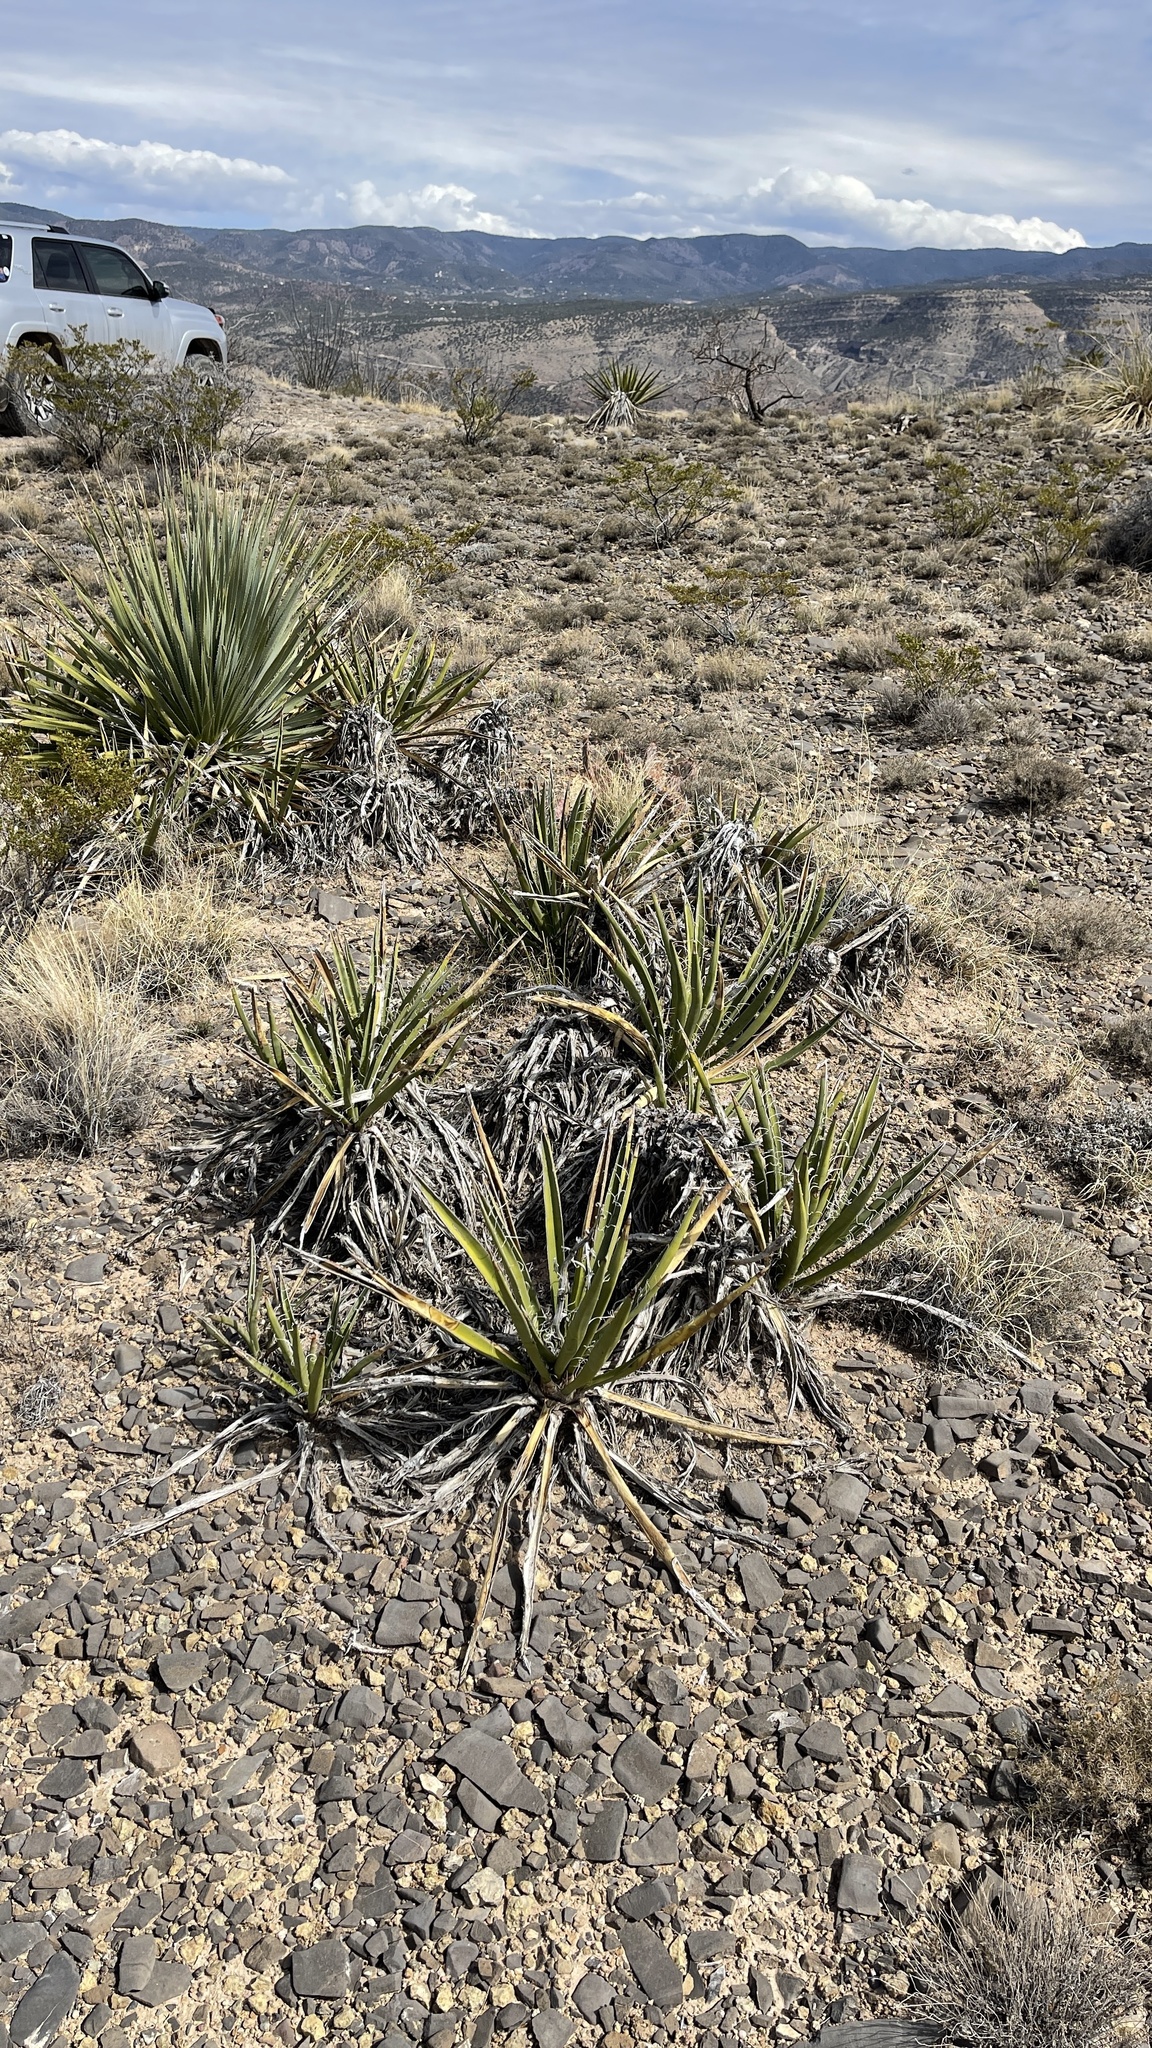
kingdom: Plantae
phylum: Tracheophyta
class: Liliopsida
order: Asparagales
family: Asparagaceae
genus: Yucca
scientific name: Yucca baccata
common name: Banana yucca
